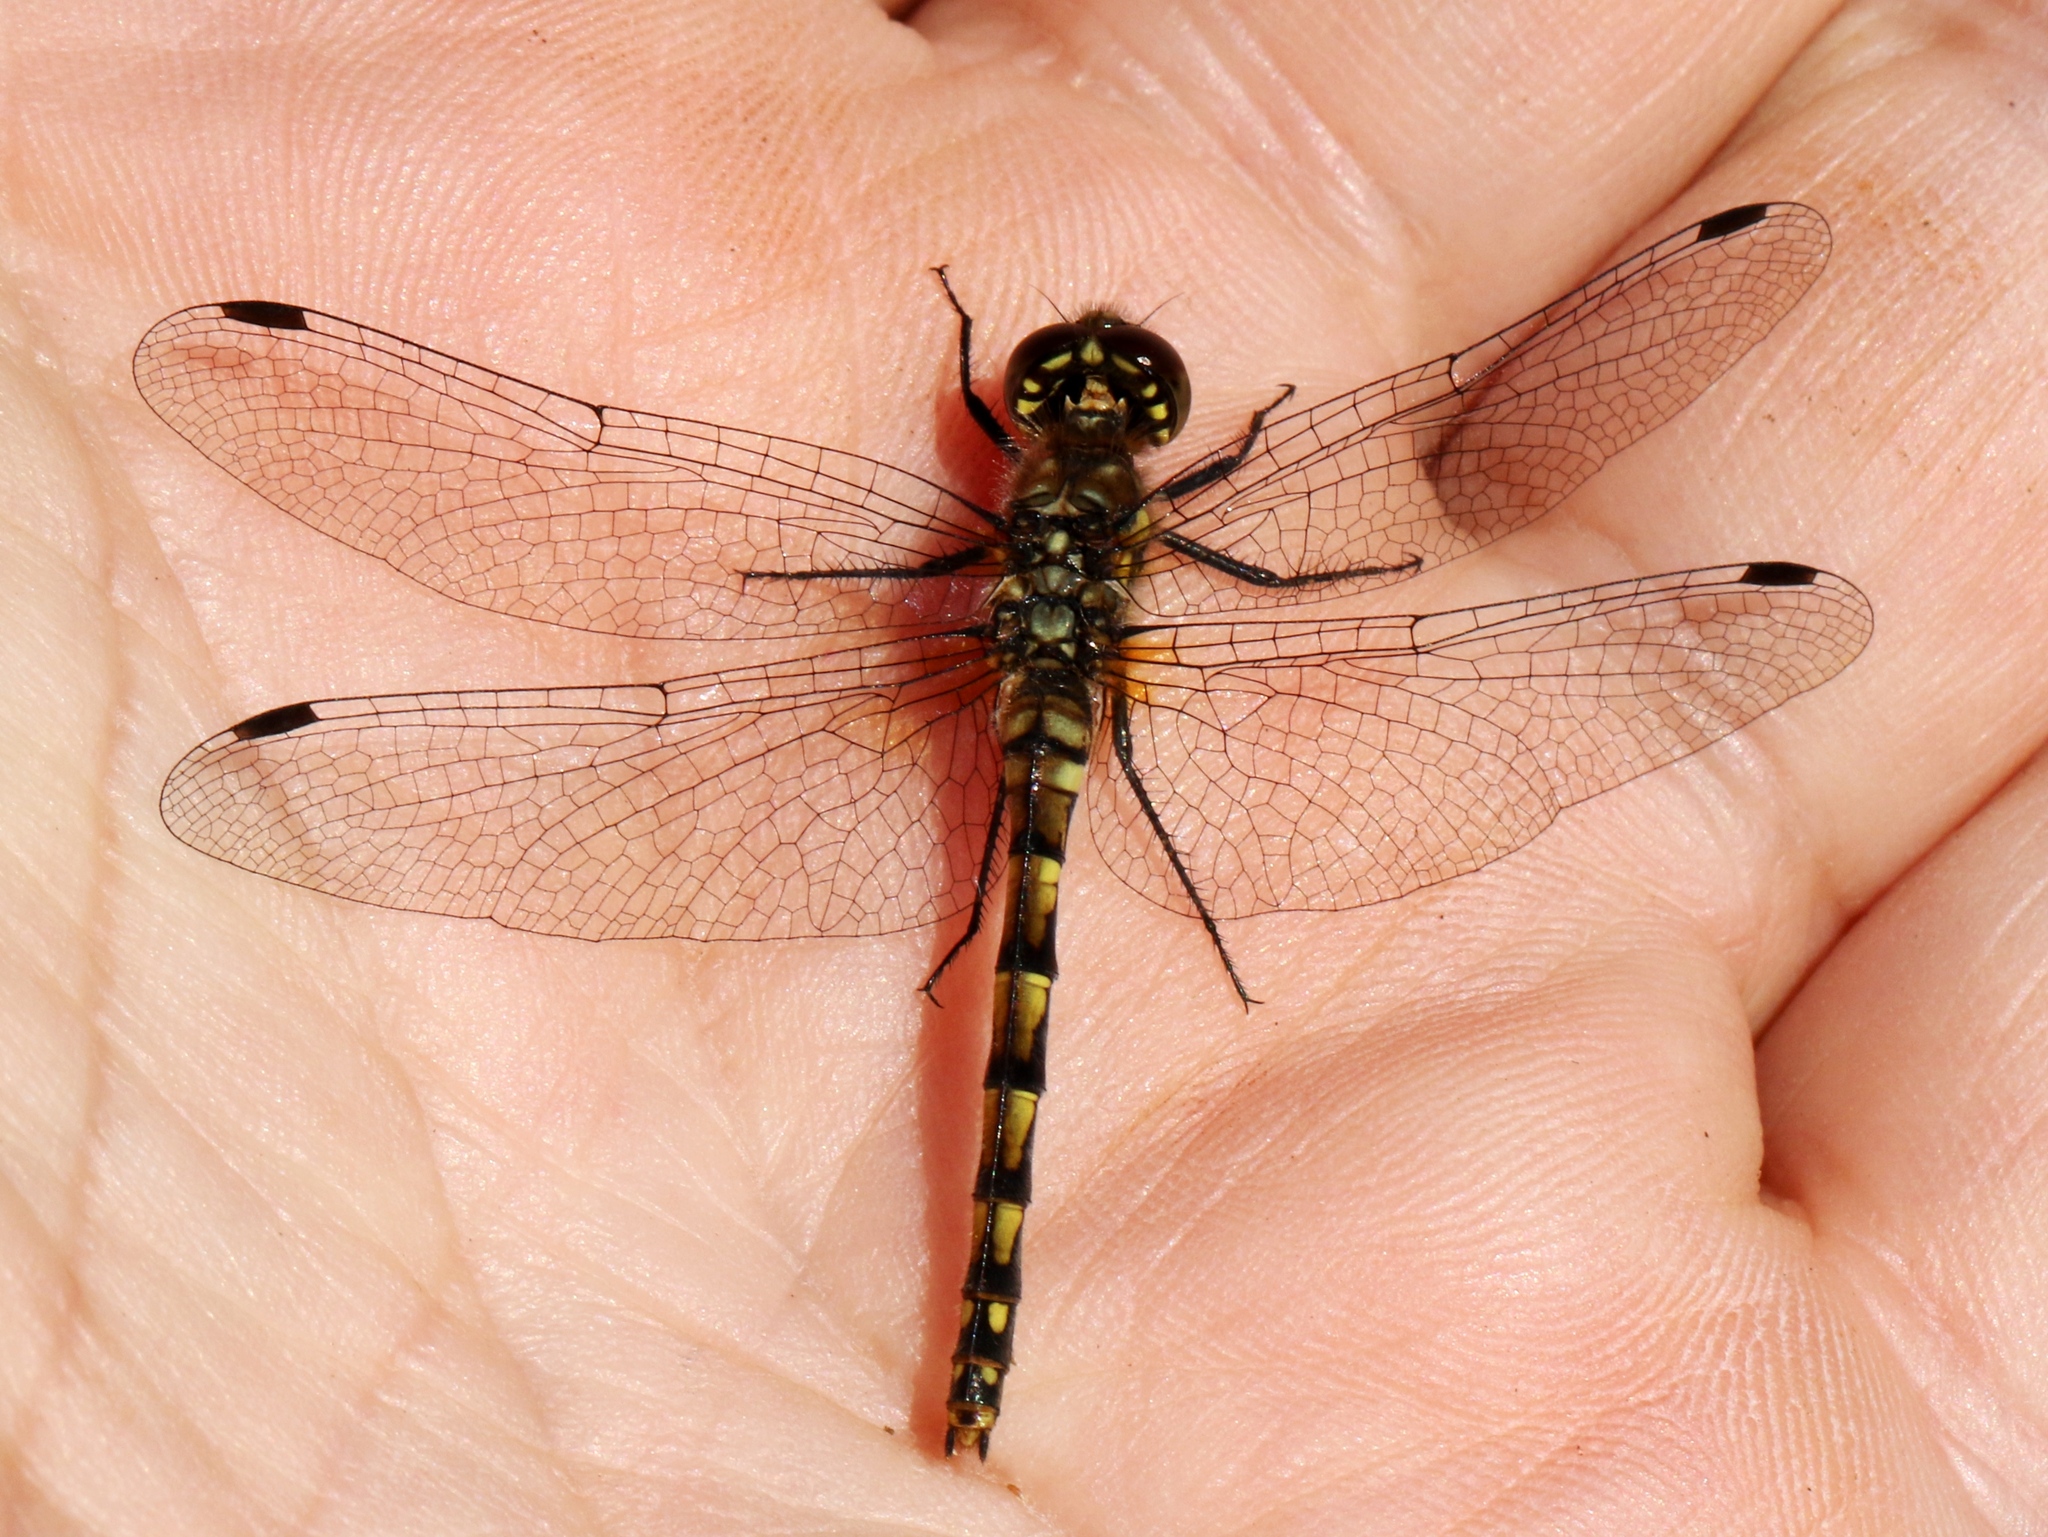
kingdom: Animalia
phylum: Arthropoda
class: Insecta
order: Odonata
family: Libellulidae
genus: Sympetrum
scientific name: Sympetrum danae
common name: Black darter
